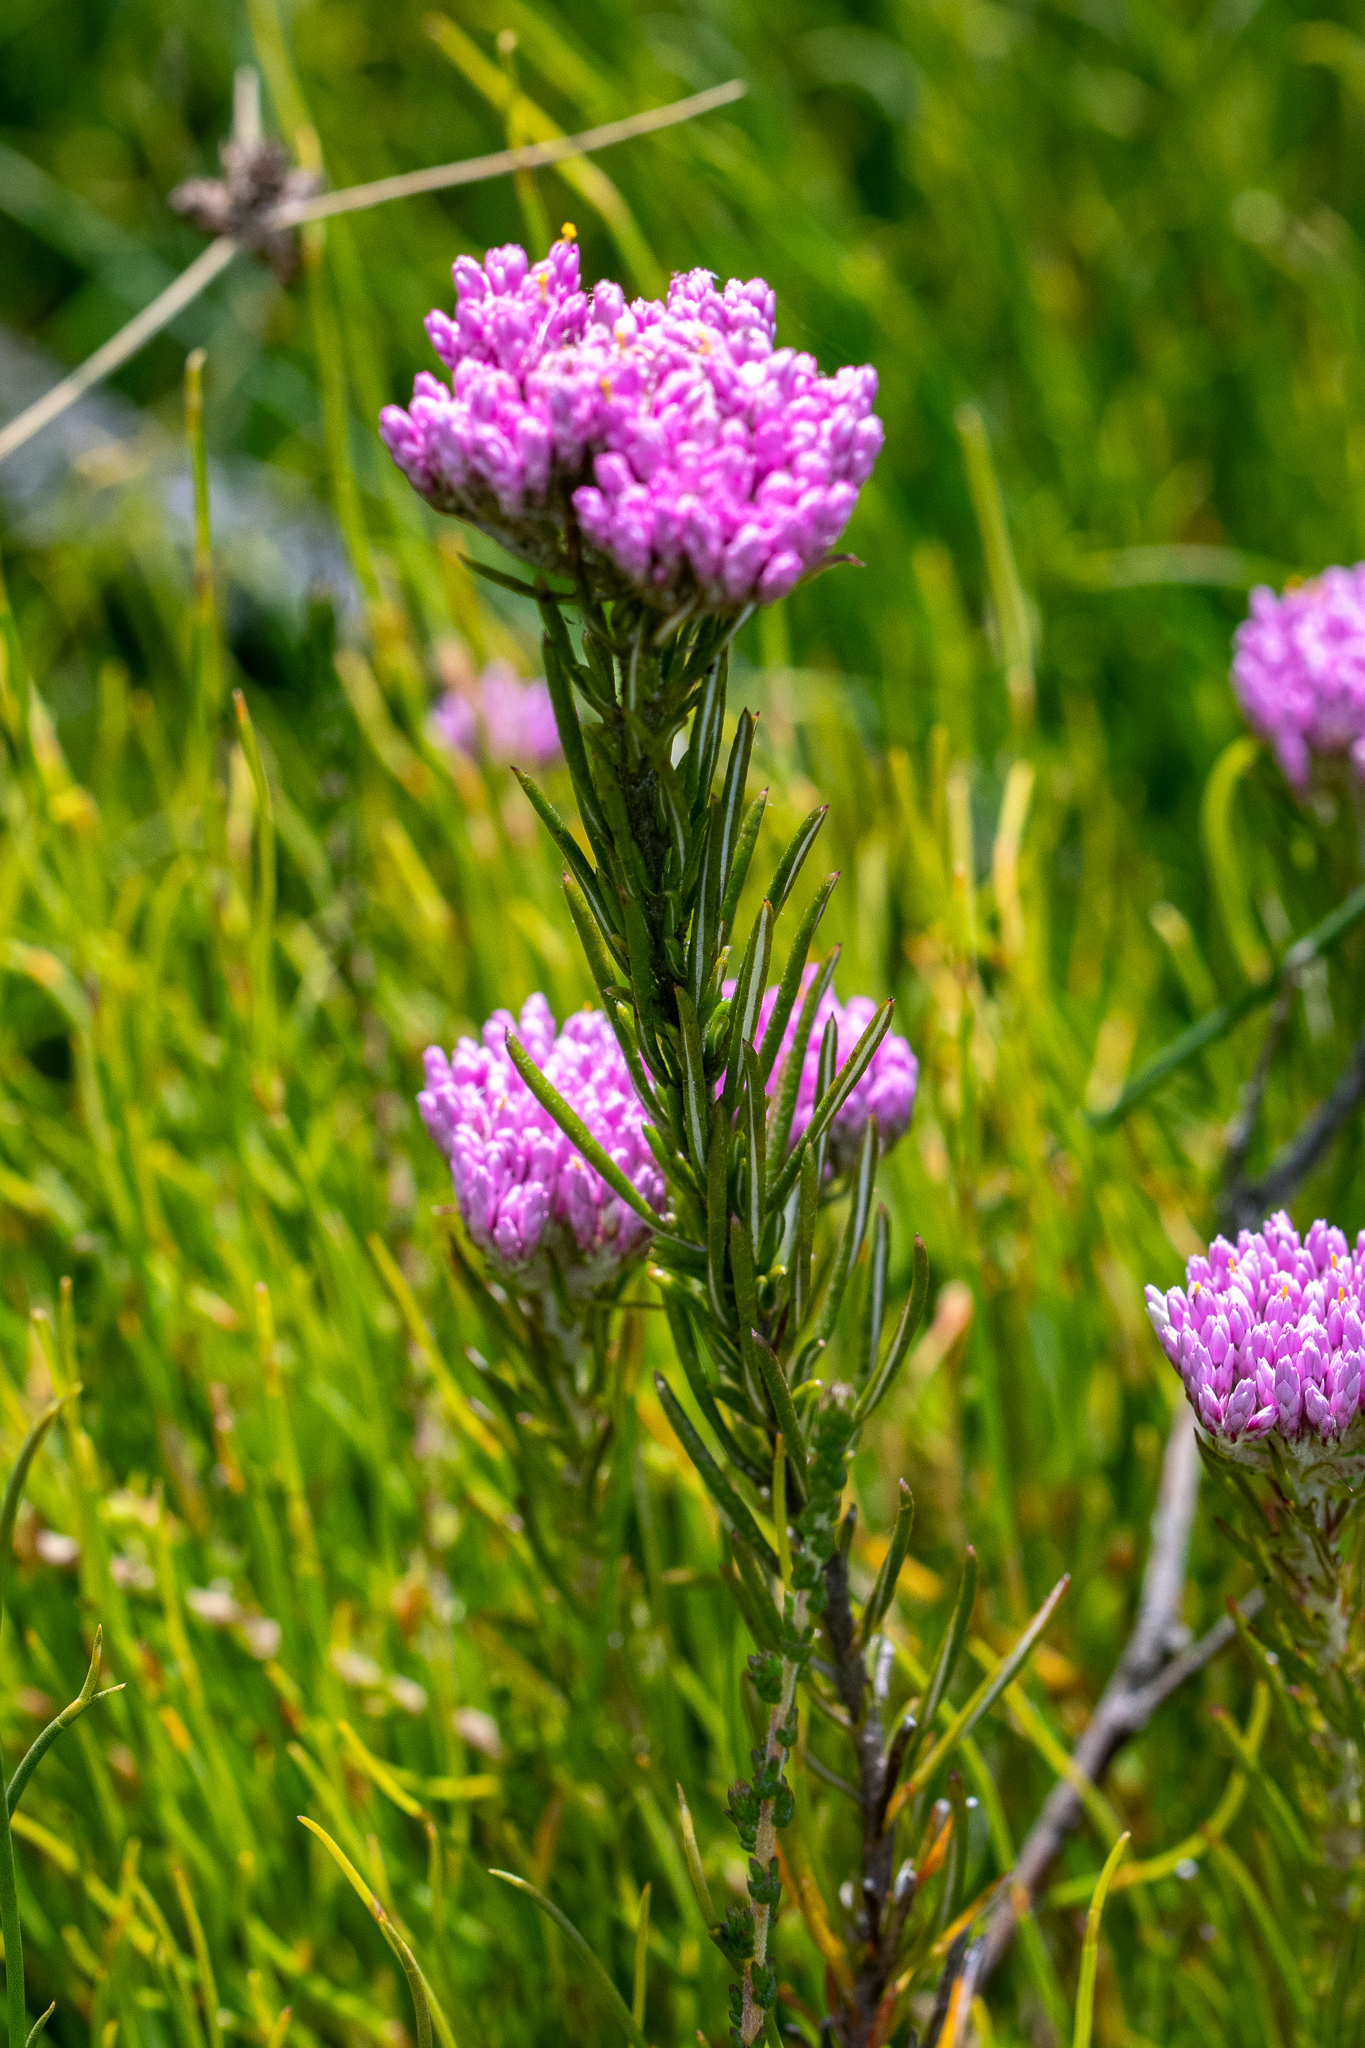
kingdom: Plantae
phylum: Tracheophyta
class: Magnoliopsida
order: Asterales
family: Asteraceae
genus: Metalasia
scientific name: Metalasia erubescens
